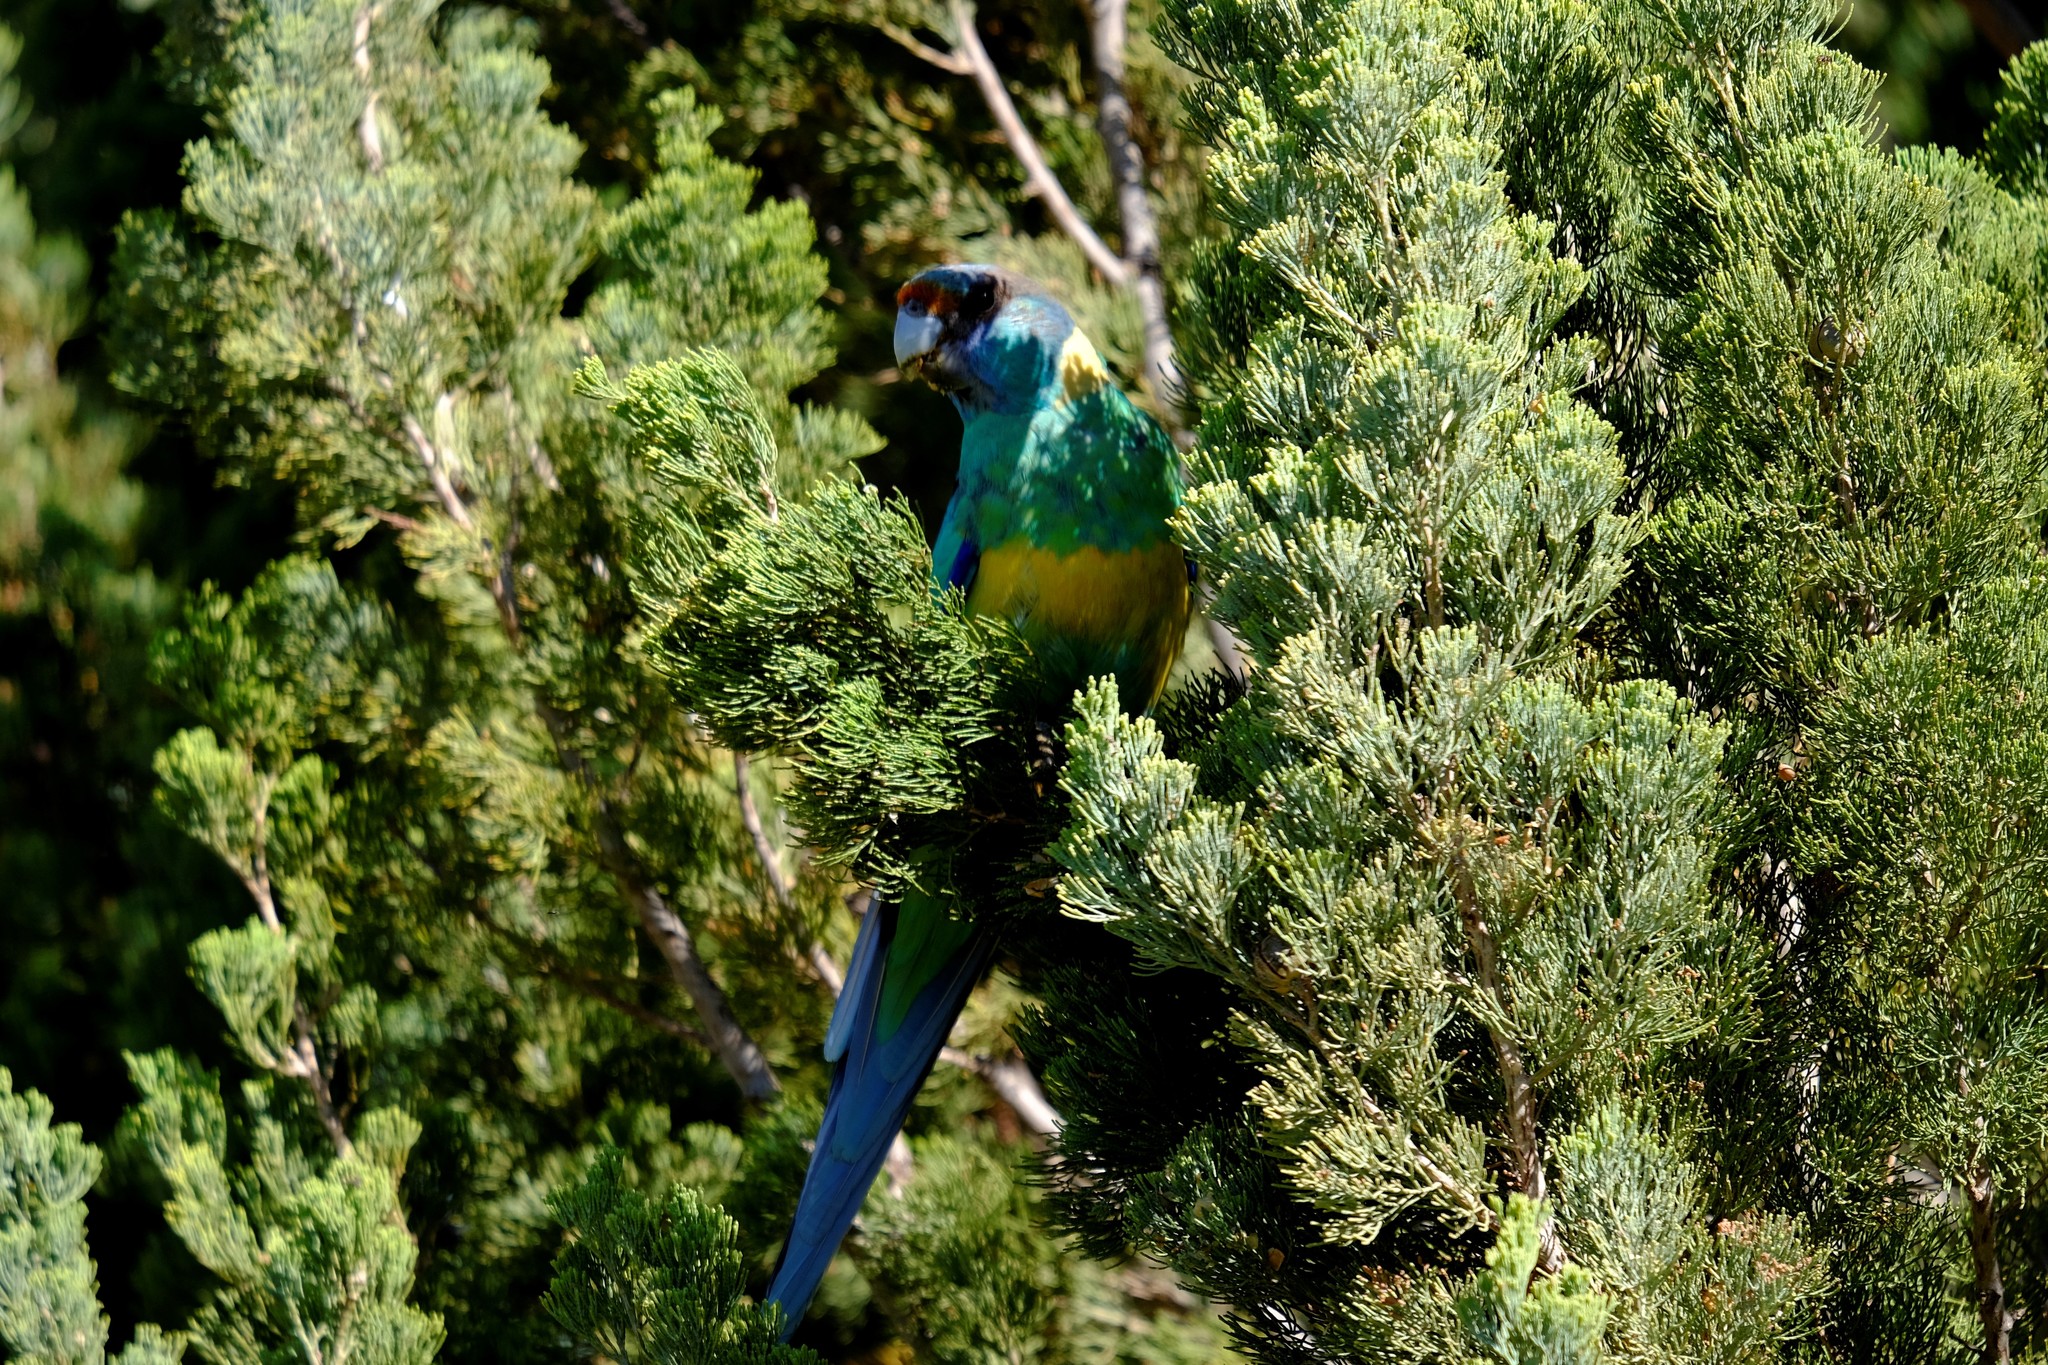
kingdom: Animalia
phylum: Chordata
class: Aves
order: Psittaciformes
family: Psittacidae
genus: Barnardius
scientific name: Barnardius zonarius
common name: Australian ringneck
